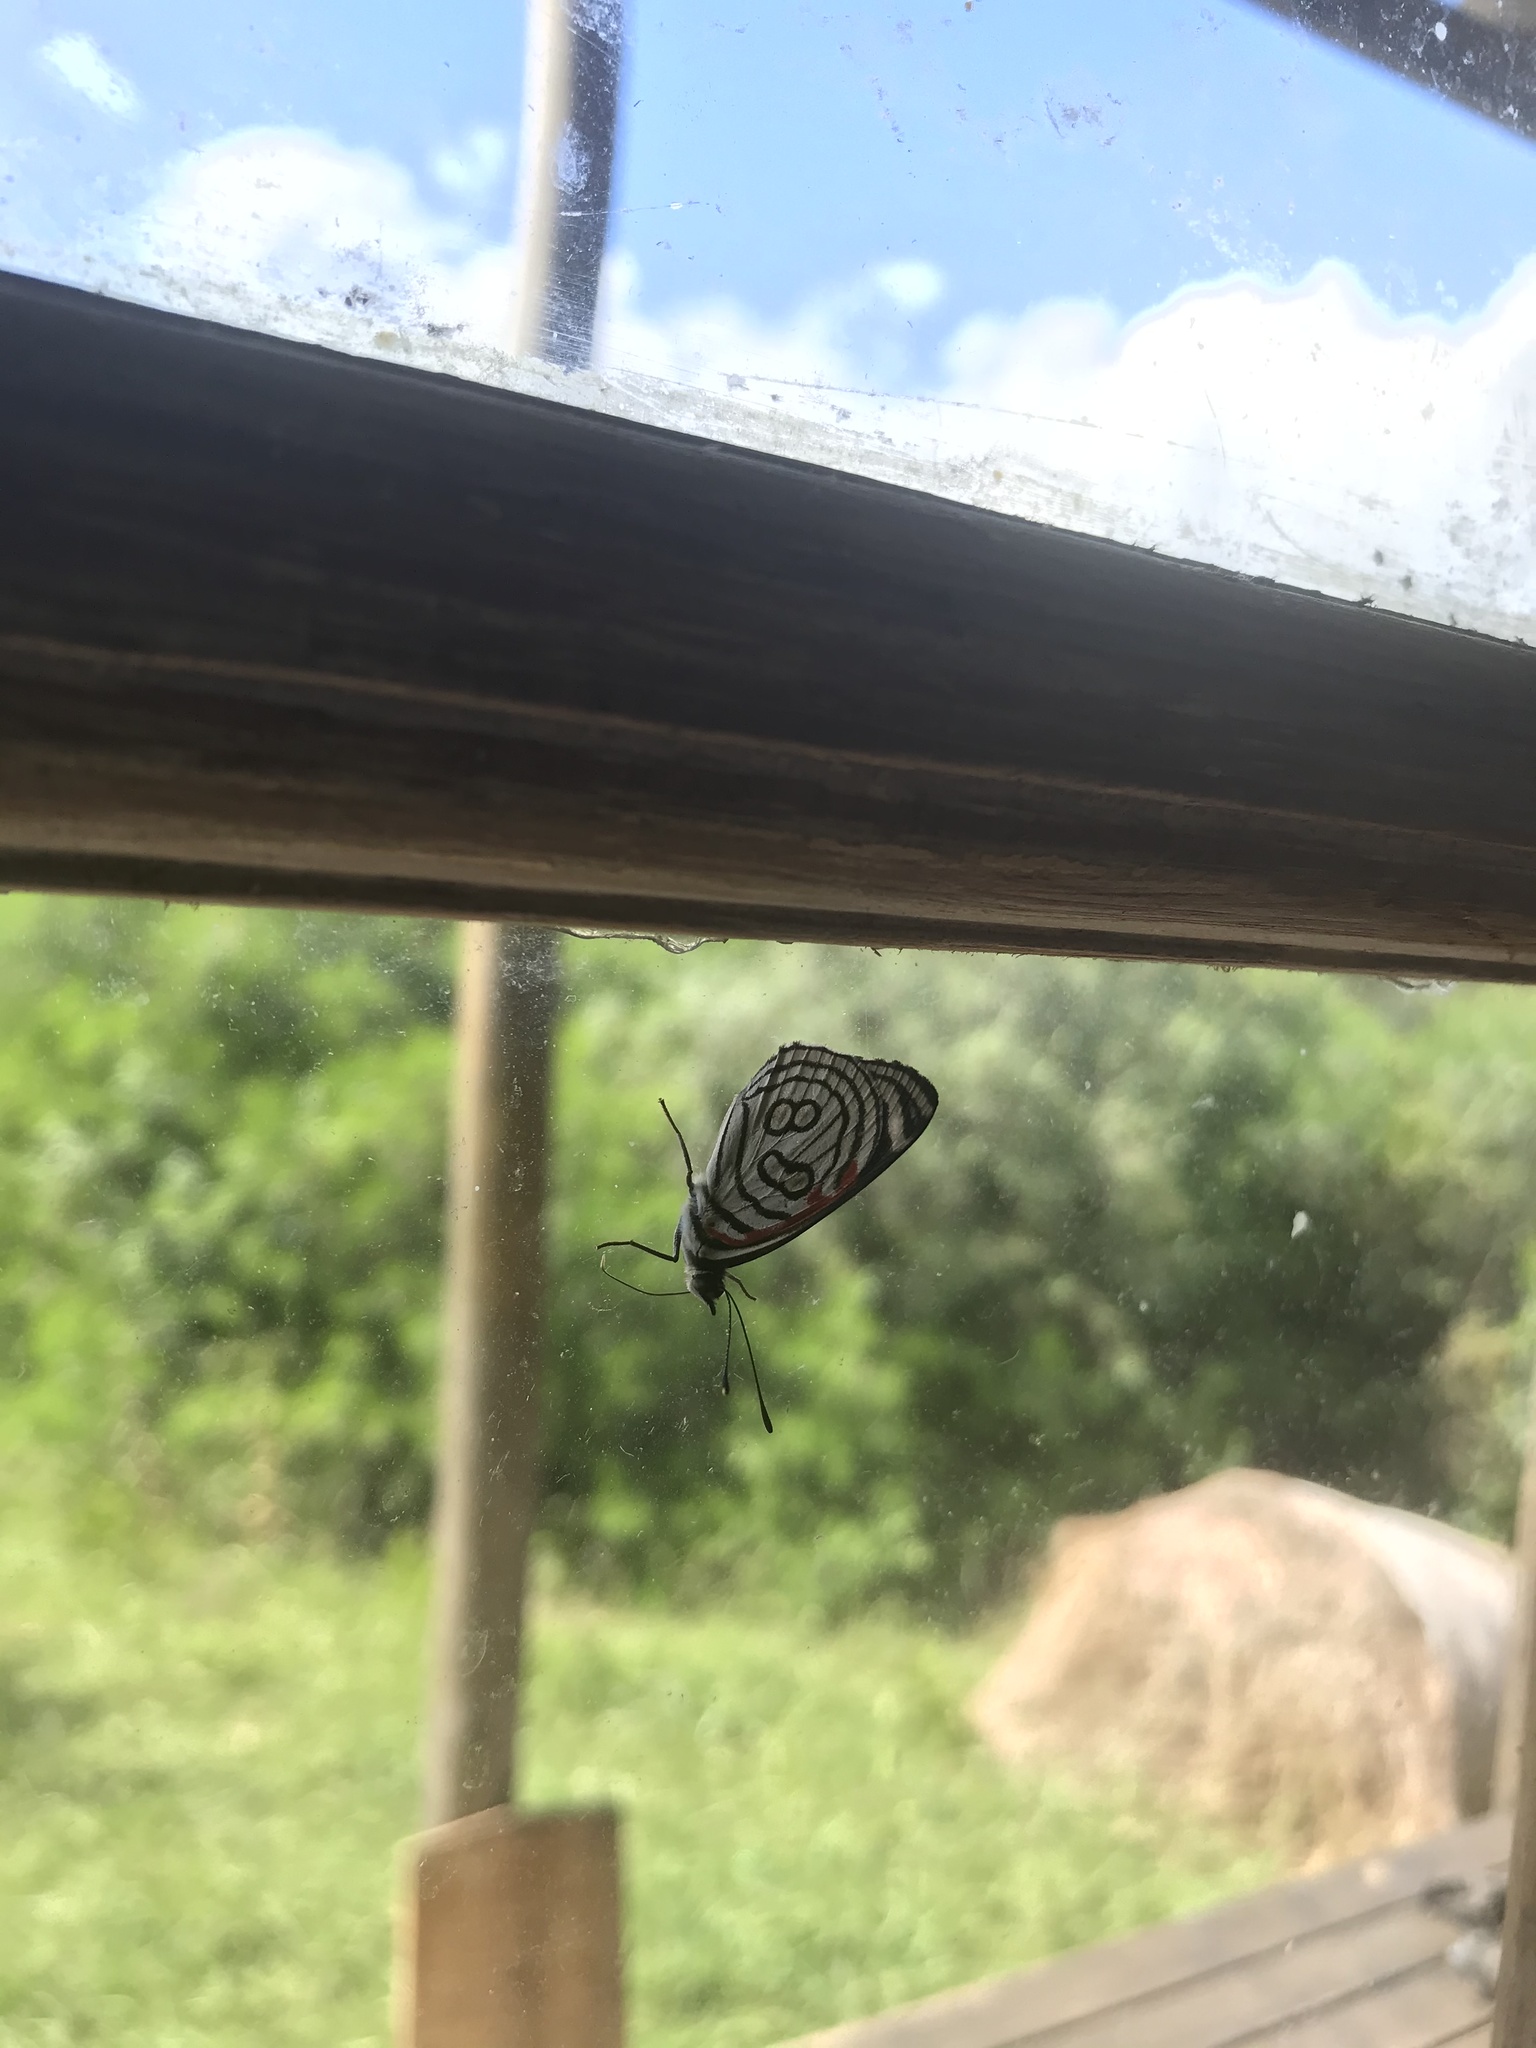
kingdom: Animalia
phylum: Arthropoda
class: Insecta
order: Lepidoptera
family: Nymphalidae
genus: Diaethria
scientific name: Diaethria candrena
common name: Number eighty
